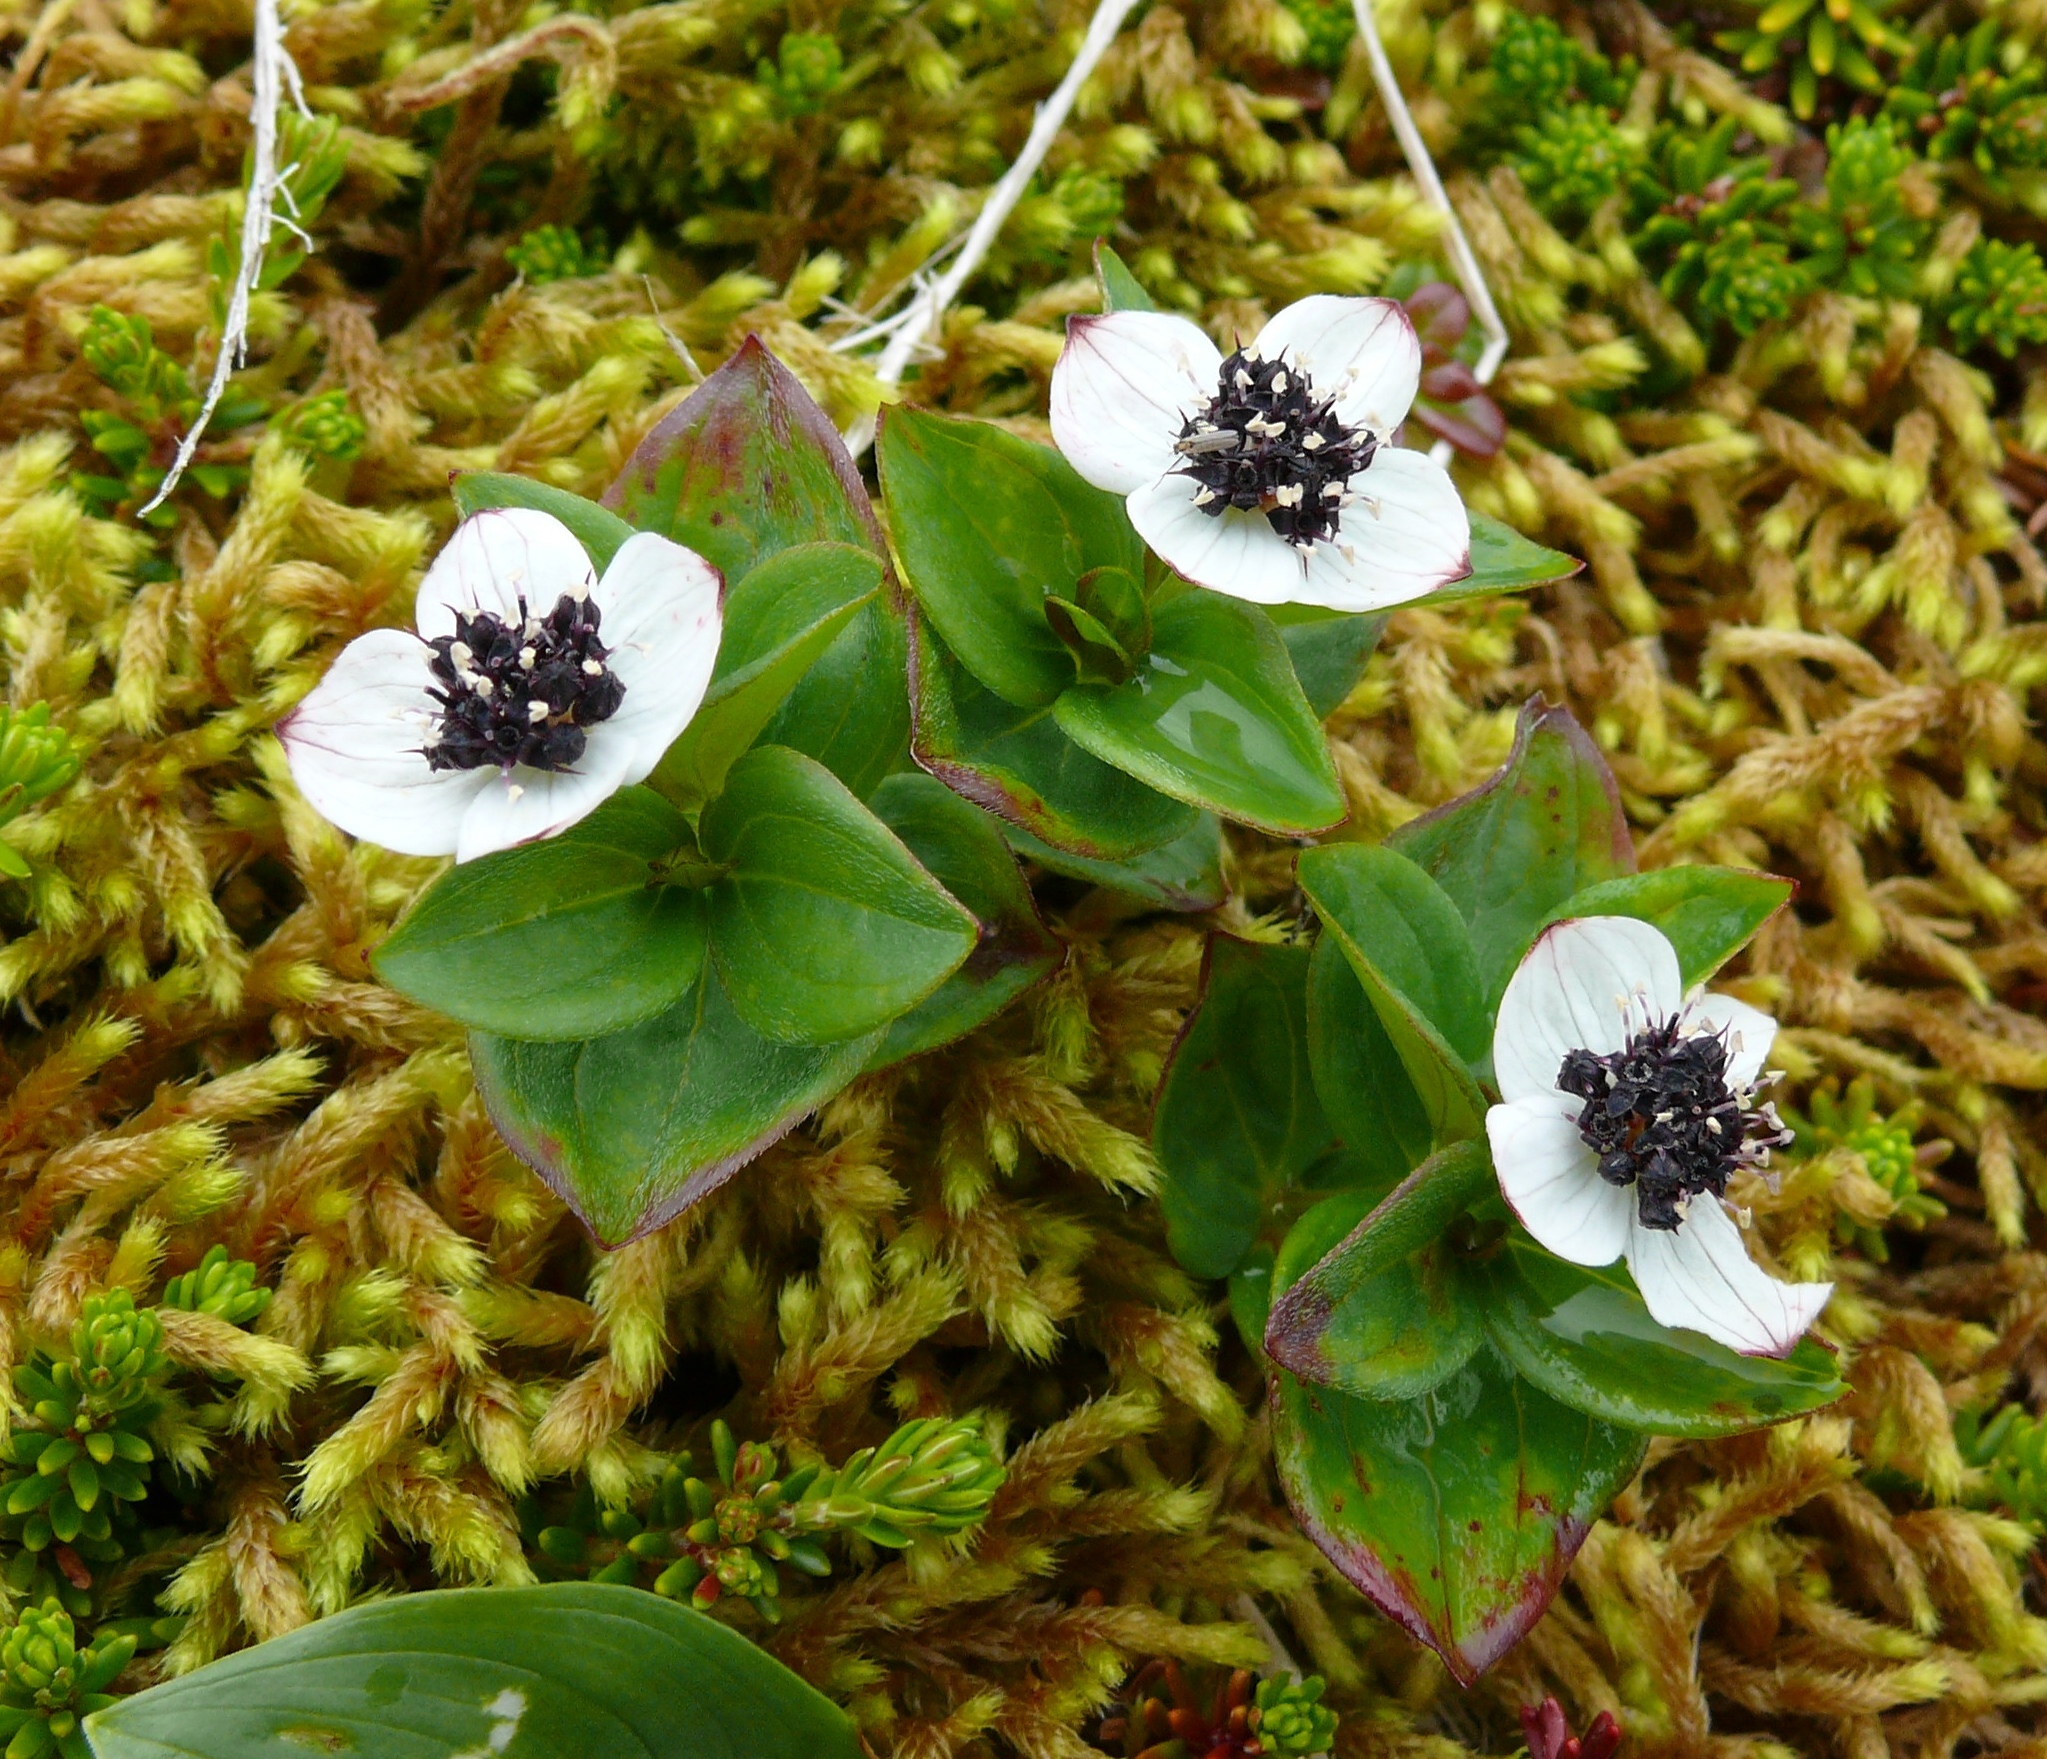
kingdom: Plantae
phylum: Tracheophyta
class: Magnoliopsida
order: Cornales
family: Cornaceae
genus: Cornus
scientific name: Cornus suecica
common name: Dwarf cornel
